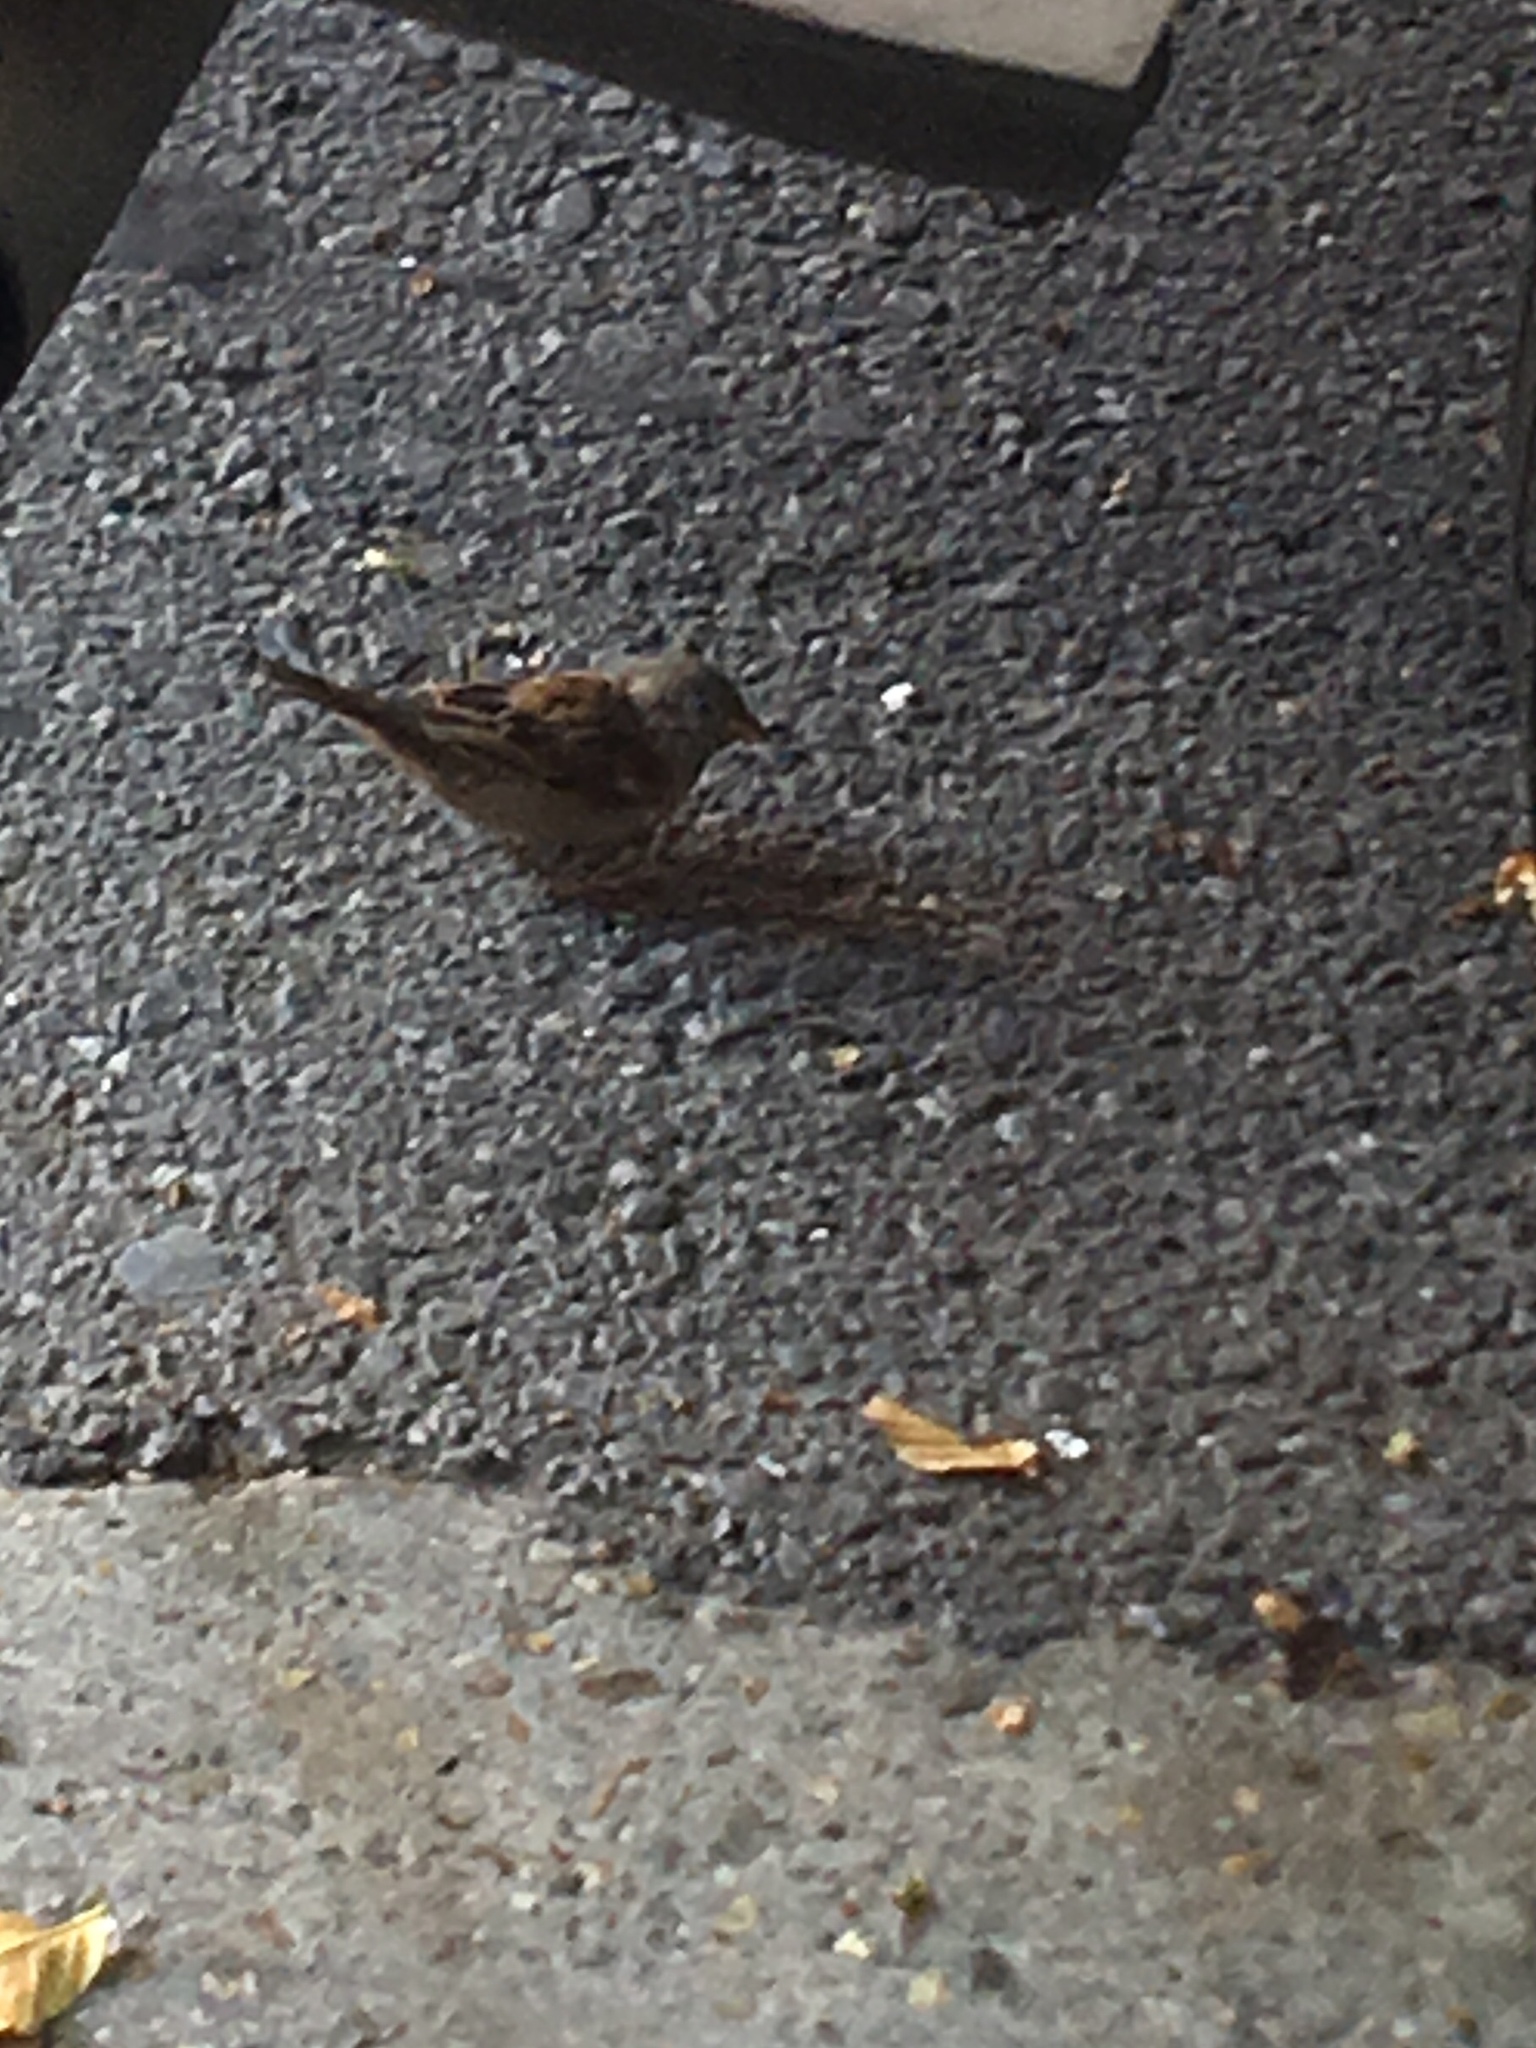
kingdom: Animalia
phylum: Chordata
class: Aves
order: Passeriformes
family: Passeridae
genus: Passer
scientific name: Passer domesticus
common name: House sparrow
